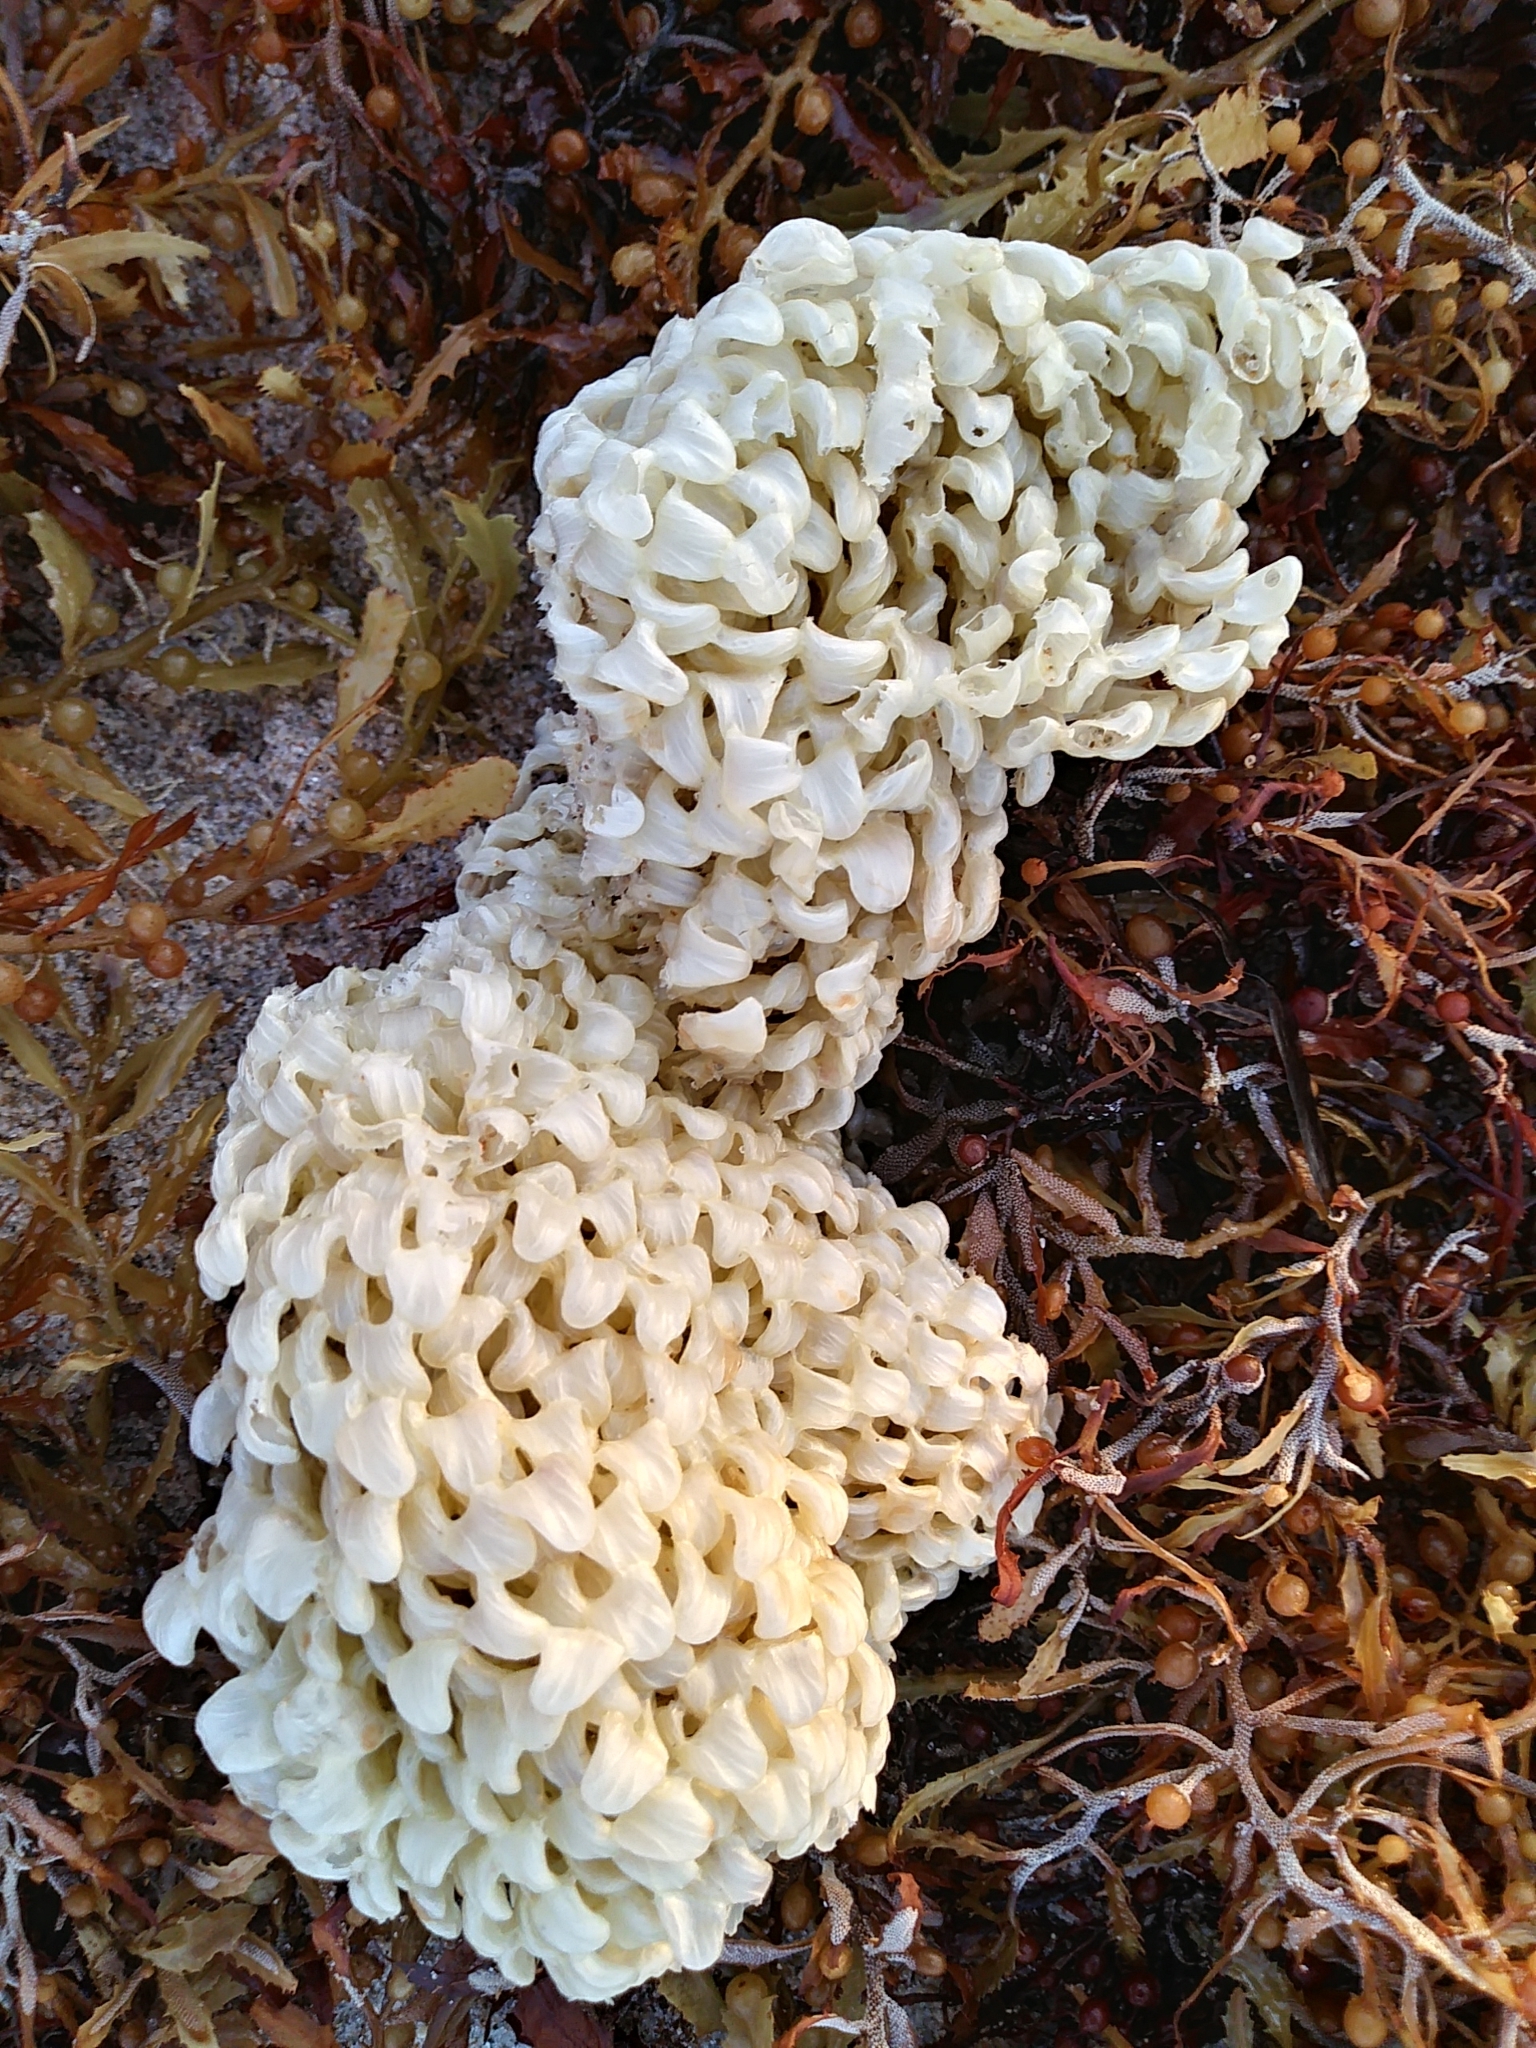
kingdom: Animalia
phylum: Mollusca
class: Gastropoda
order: Neogastropoda
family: Muricidae
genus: Phyllonotus
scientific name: Phyllonotus pomum
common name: Apple murex
